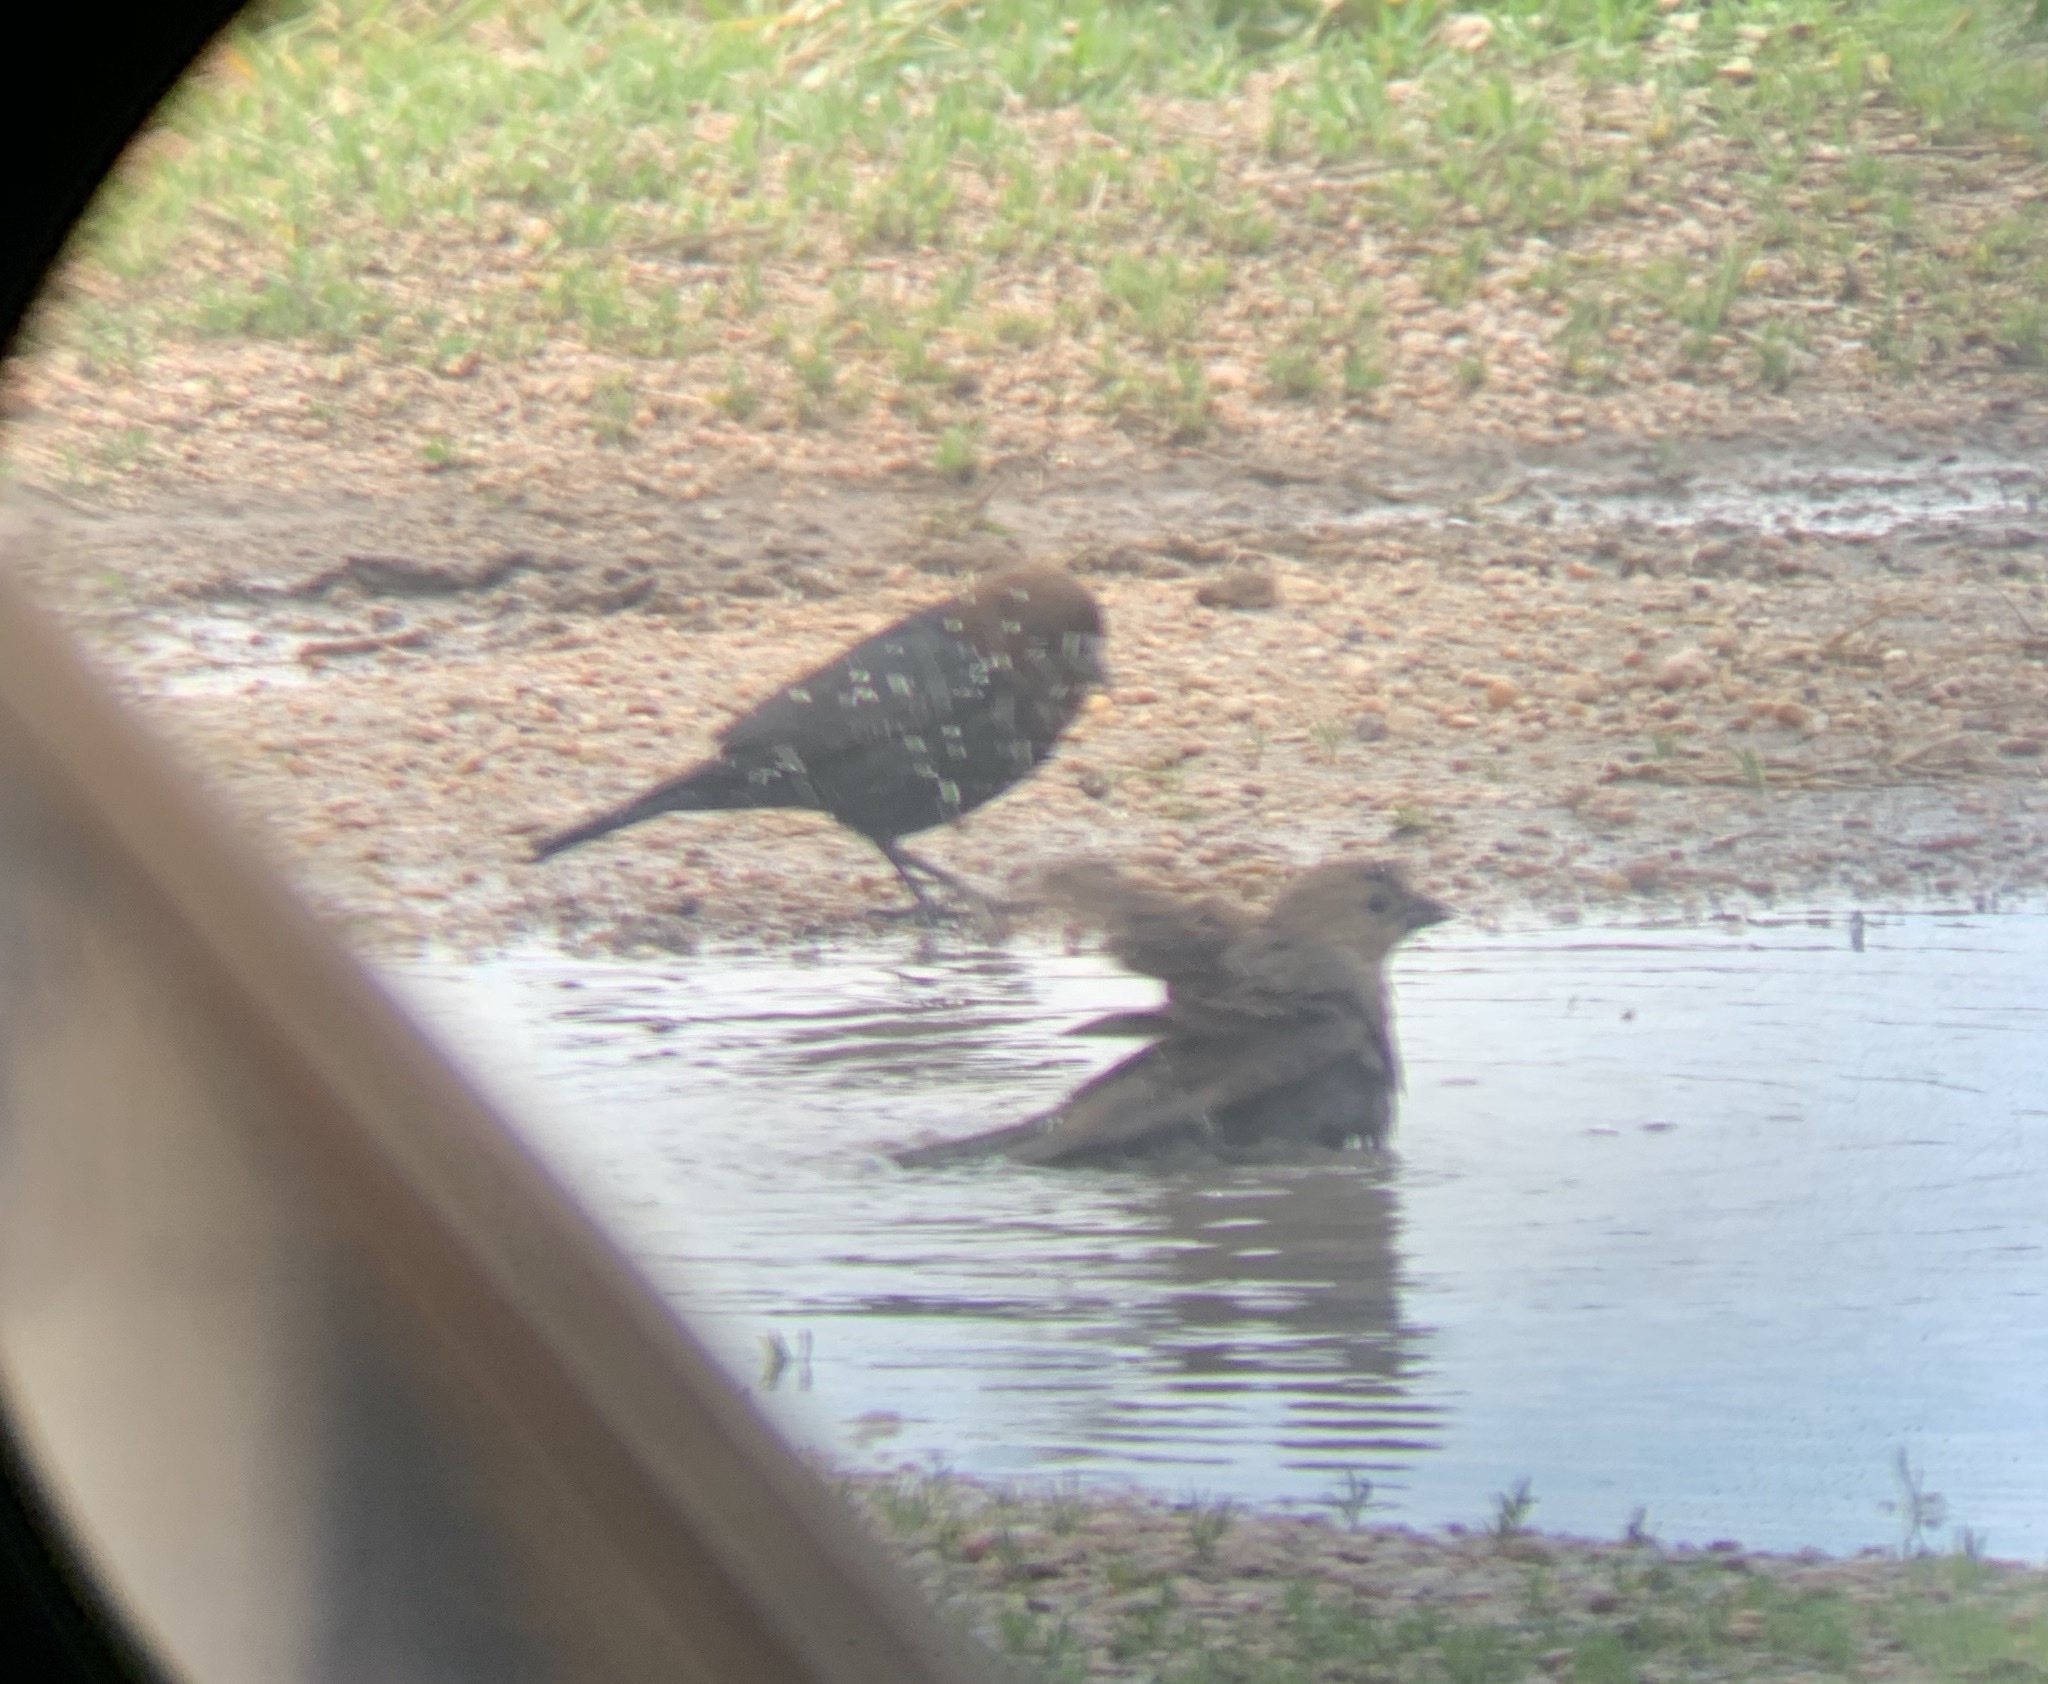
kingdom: Animalia
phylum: Chordata
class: Aves
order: Passeriformes
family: Icteridae
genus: Molothrus
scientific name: Molothrus ater
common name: Brown-headed cowbird
